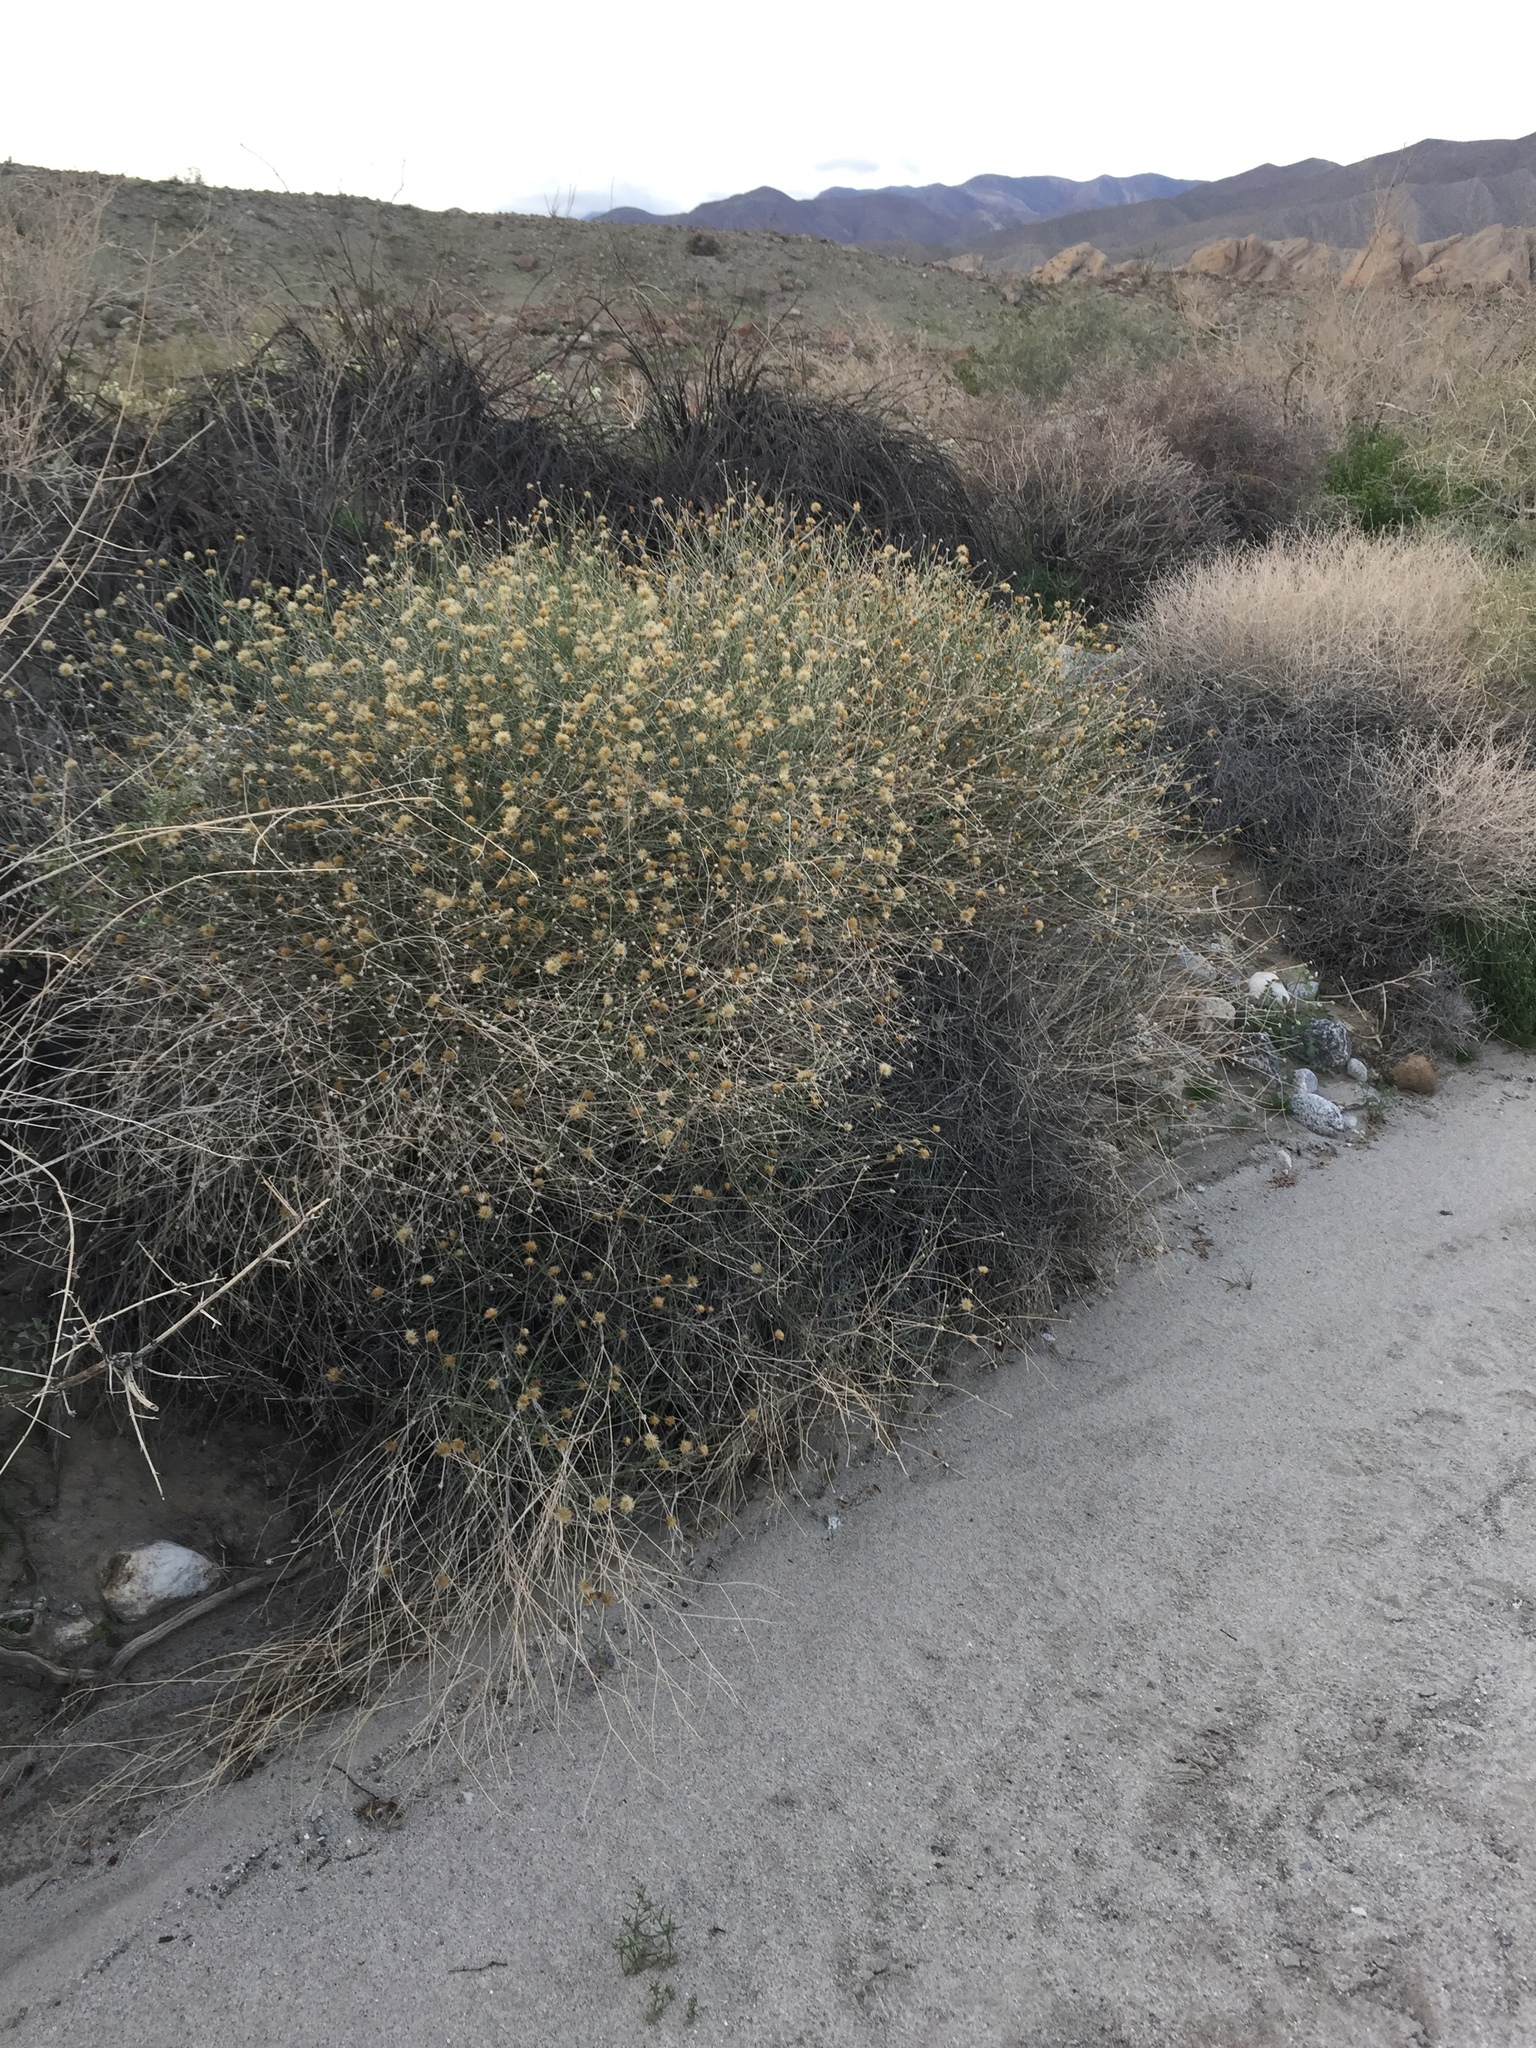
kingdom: Plantae
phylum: Tracheophyta
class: Magnoliopsida
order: Asterales
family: Asteraceae
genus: Bebbia
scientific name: Bebbia juncea
